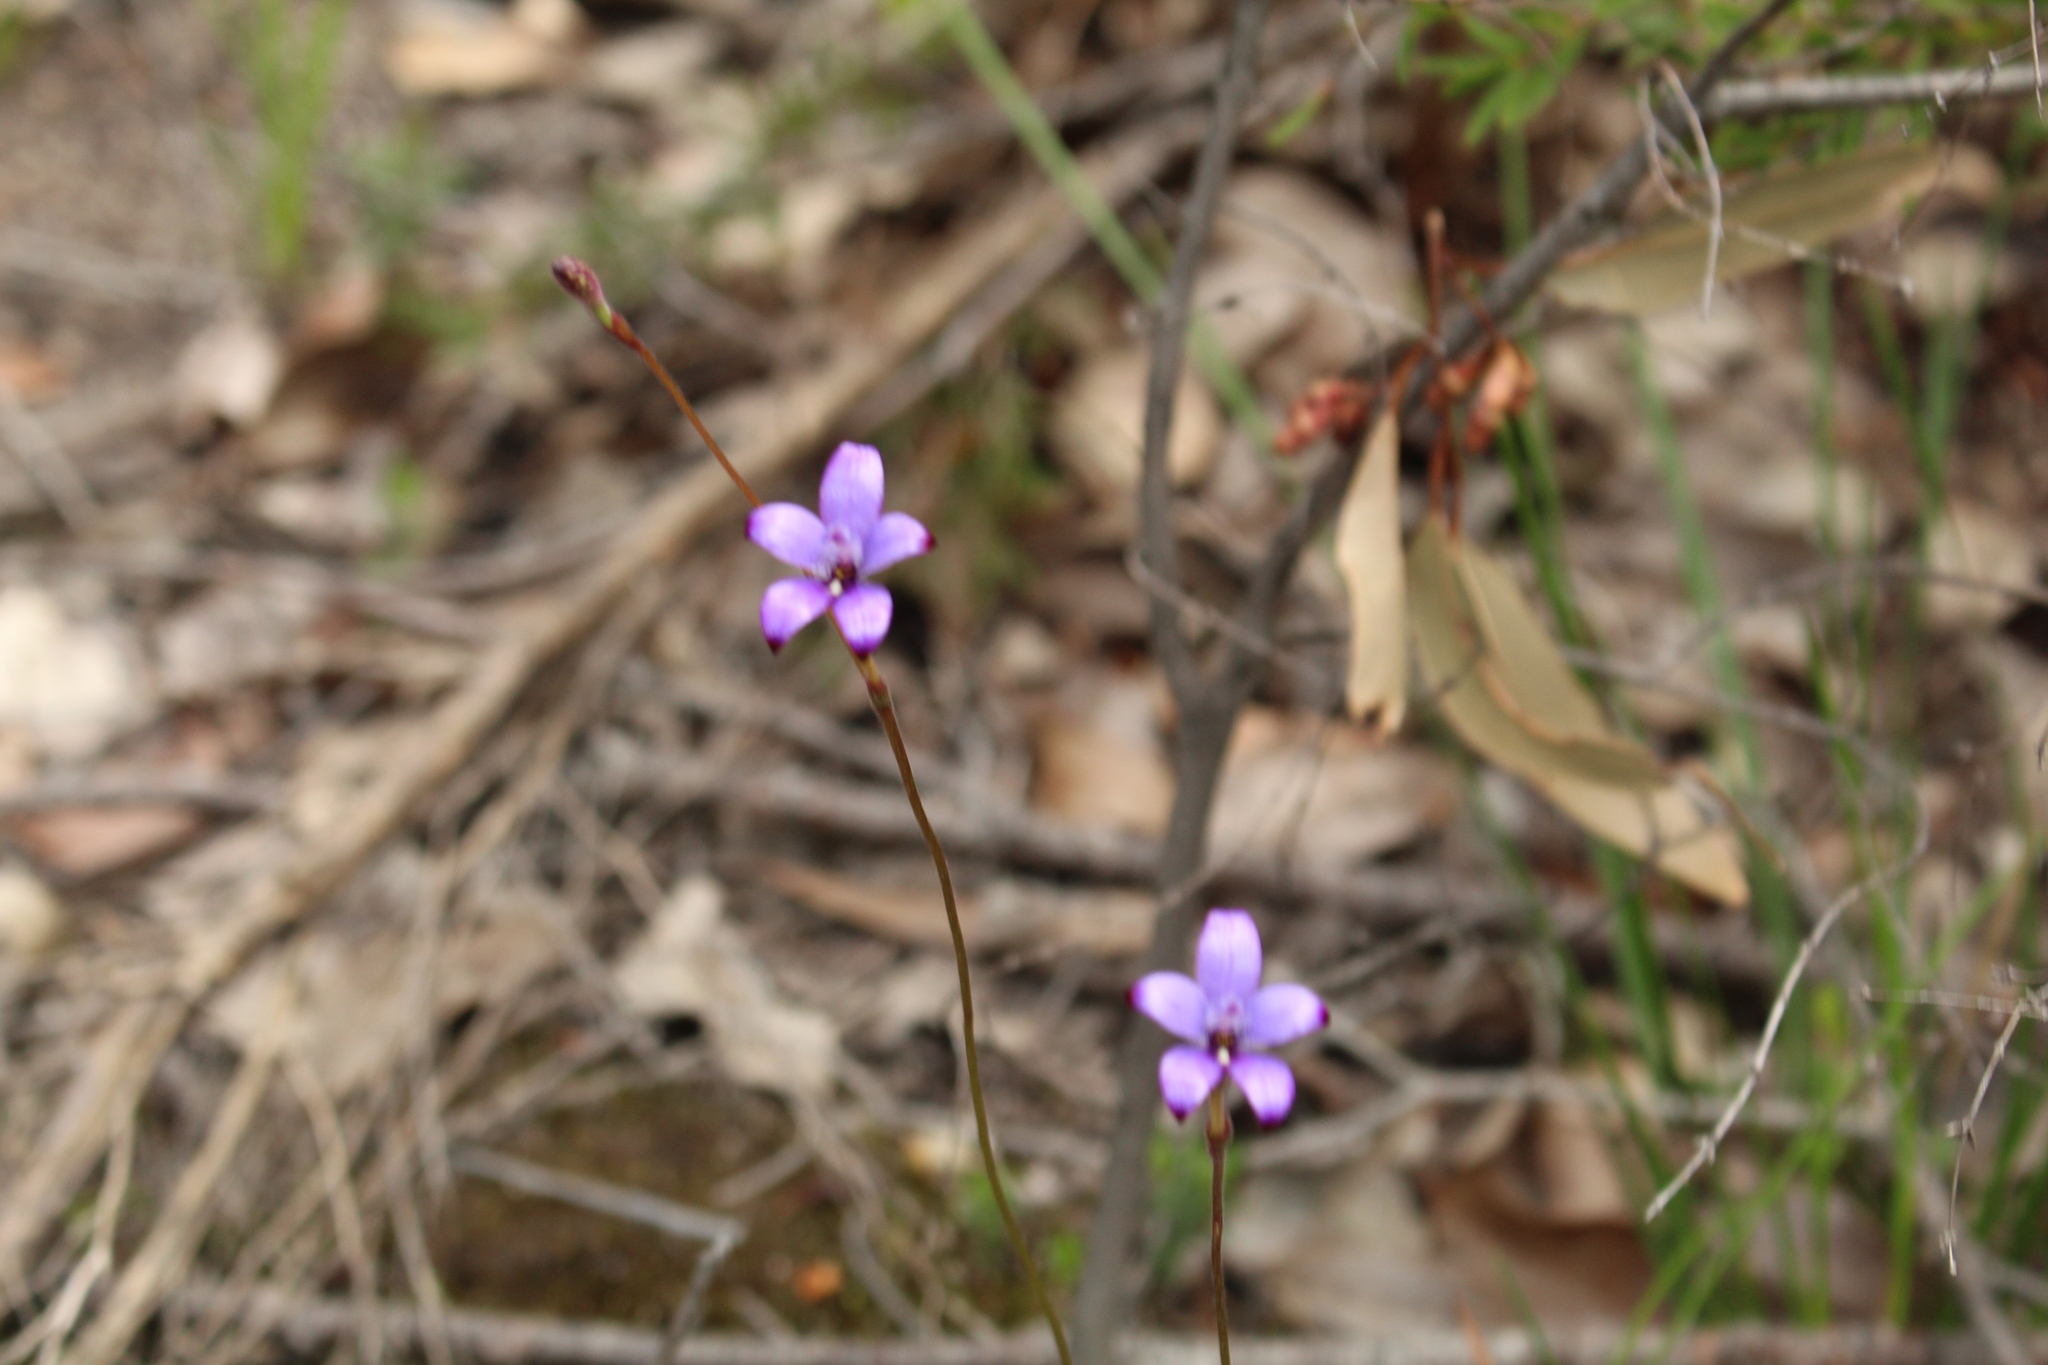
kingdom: Plantae
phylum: Tracheophyta
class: Liliopsida
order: Asparagales
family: Orchidaceae
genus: Caladenia
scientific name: Caladenia brunonis
